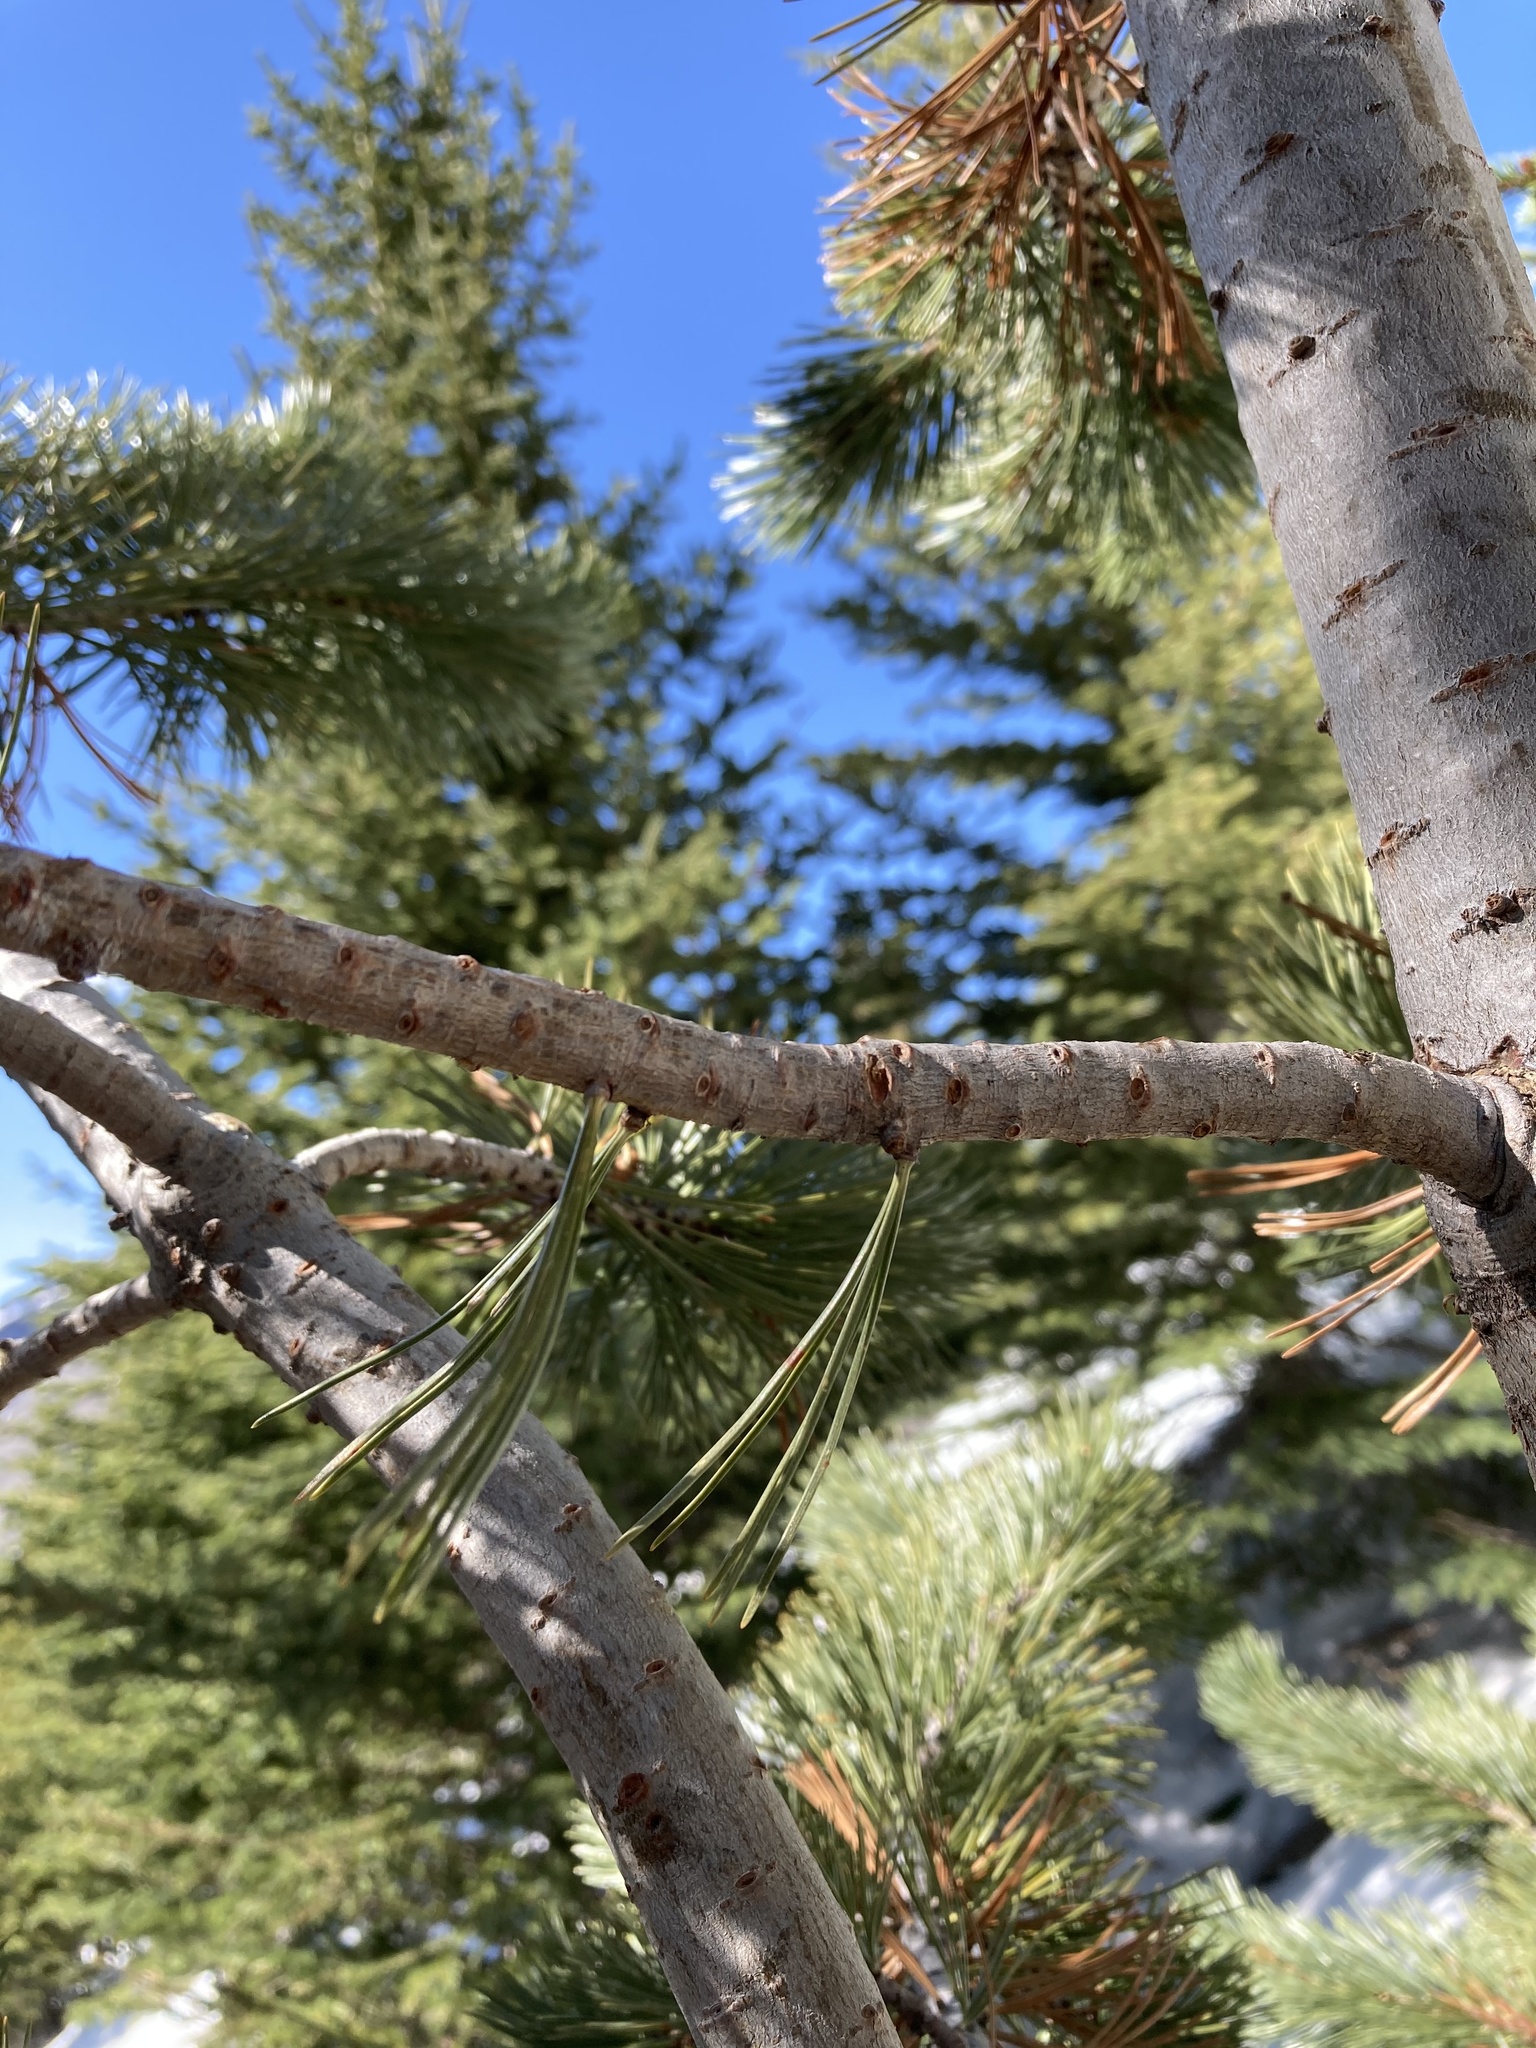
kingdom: Plantae
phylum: Tracheophyta
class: Pinopsida
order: Pinales
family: Pinaceae
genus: Pinus
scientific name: Pinus albicaulis
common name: Whitebark pine
